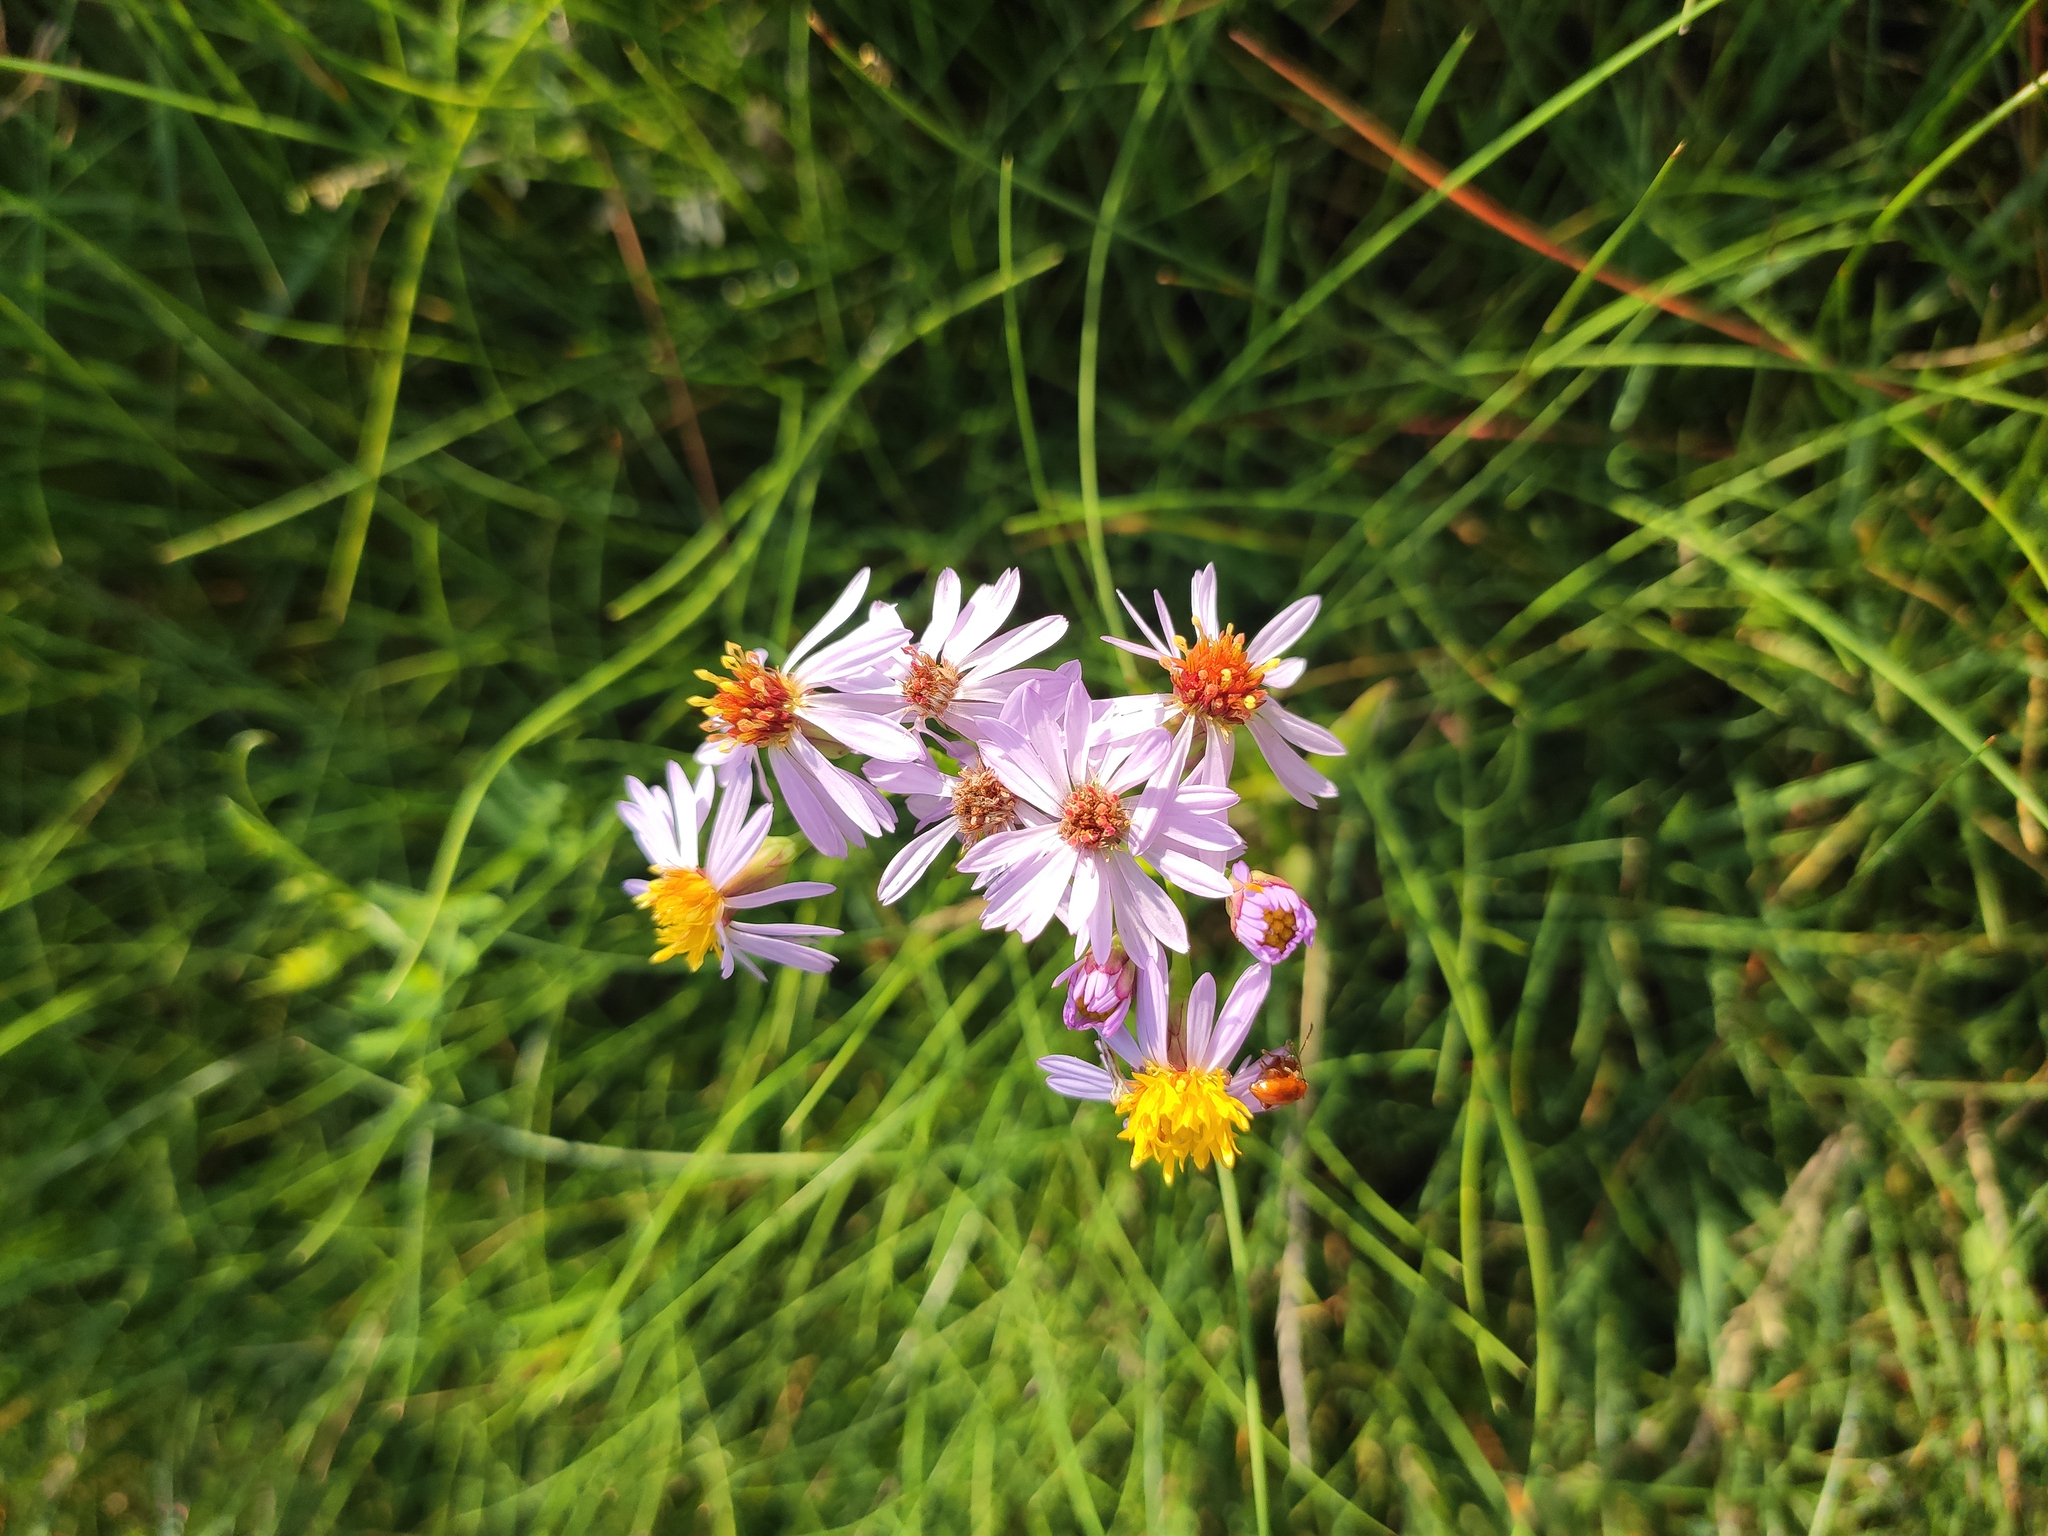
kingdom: Plantae
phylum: Tracheophyta
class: Magnoliopsida
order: Asterales
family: Asteraceae
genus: Tripolium
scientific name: Tripolium pannonicum
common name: Sea aster
